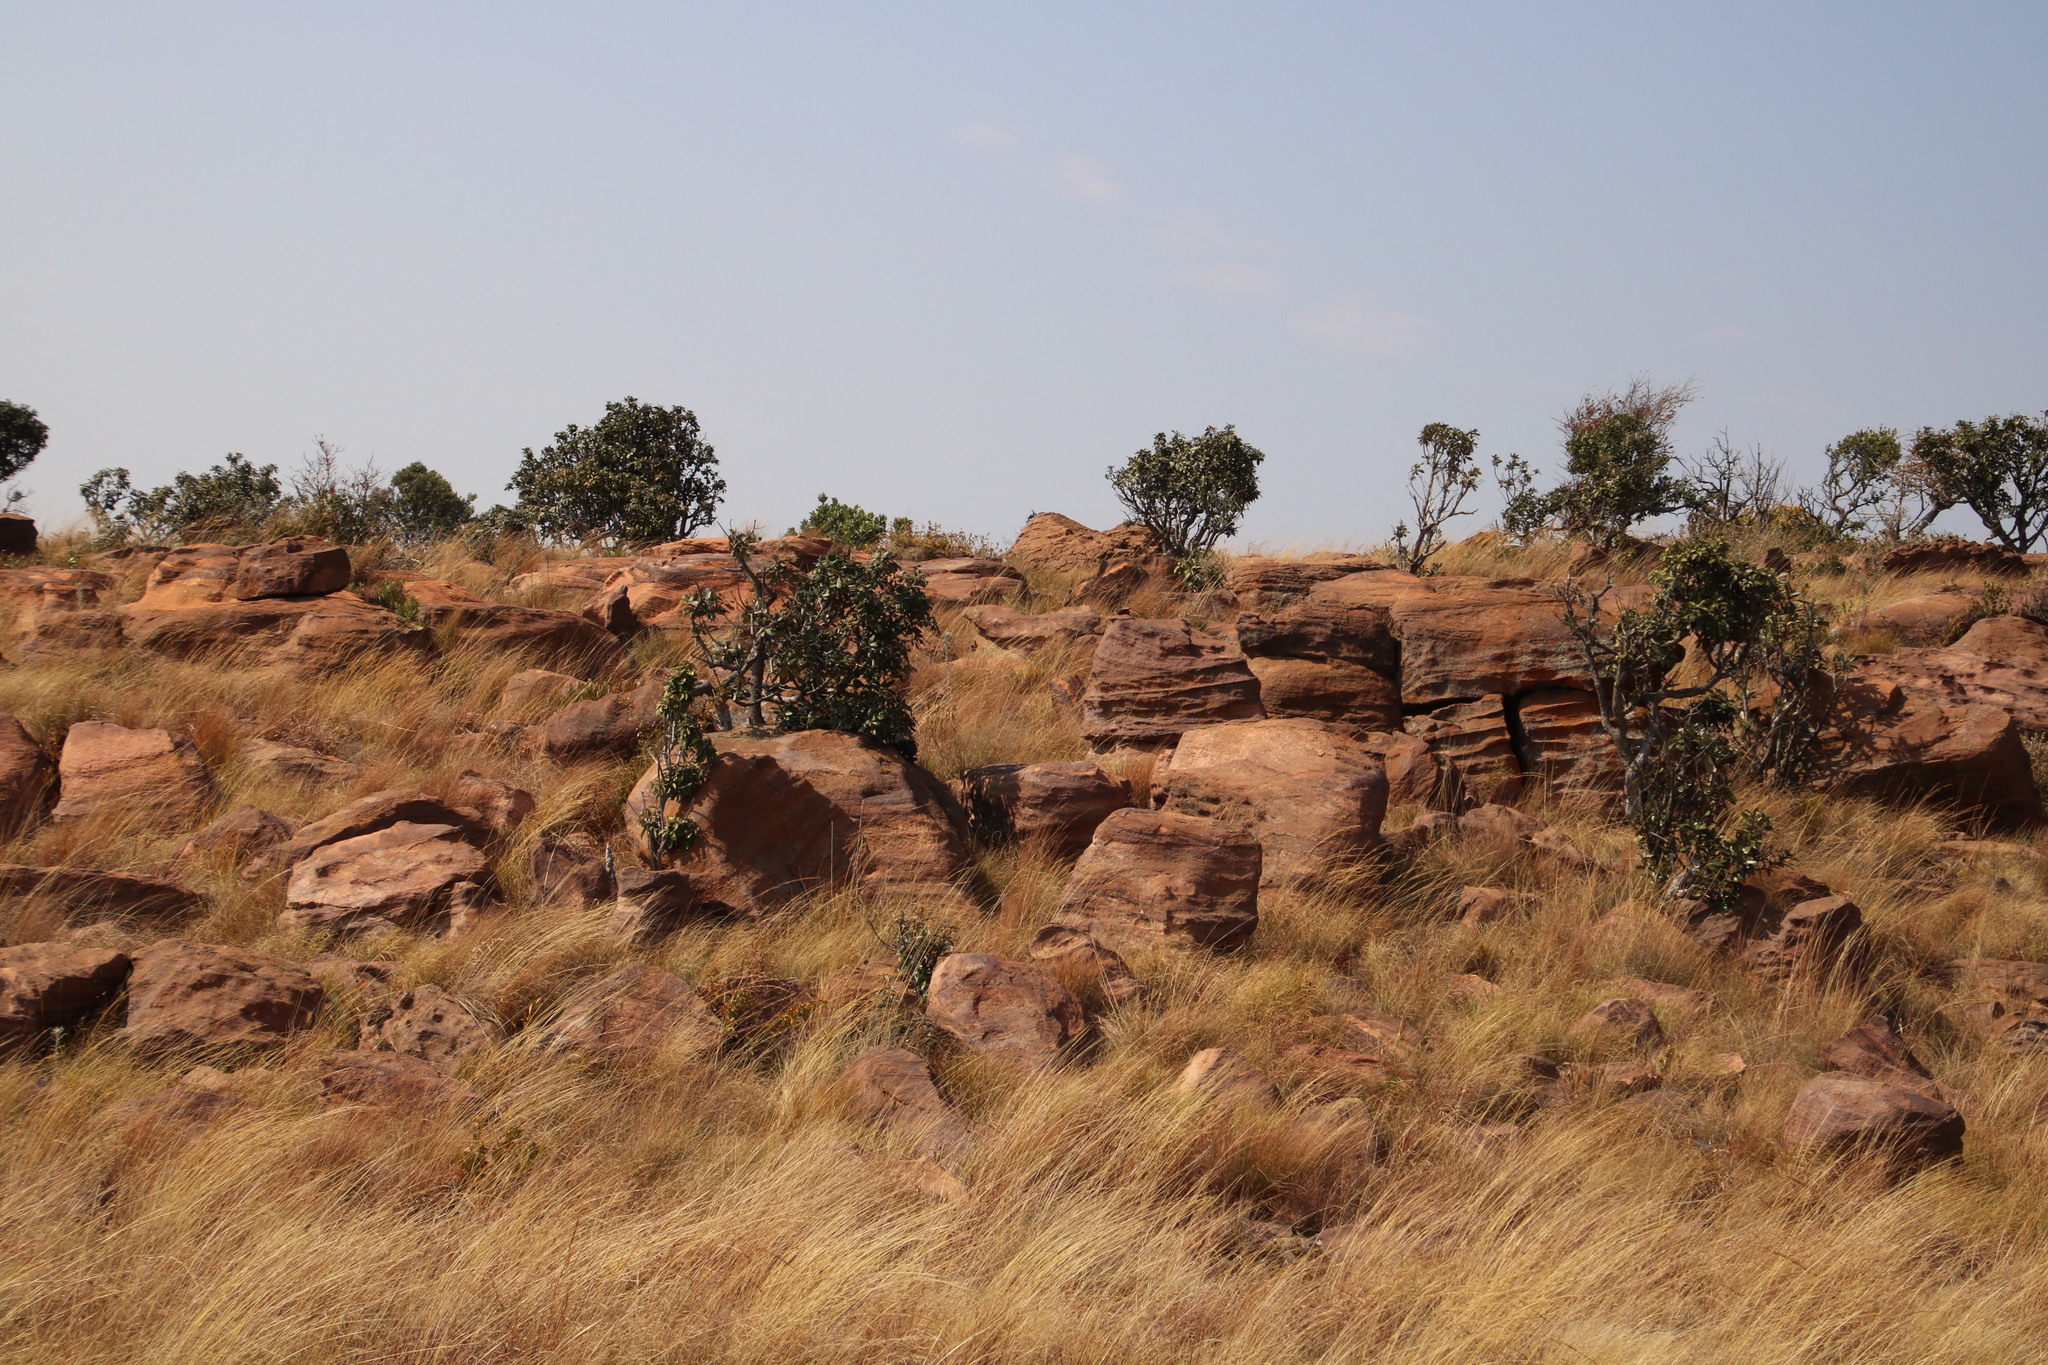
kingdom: Plantae
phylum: Tracheophyta
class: Magnoliopsida
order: Ericales
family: Sapotaceae
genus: Englerophytum
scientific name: Englerophytum magalismontanum
